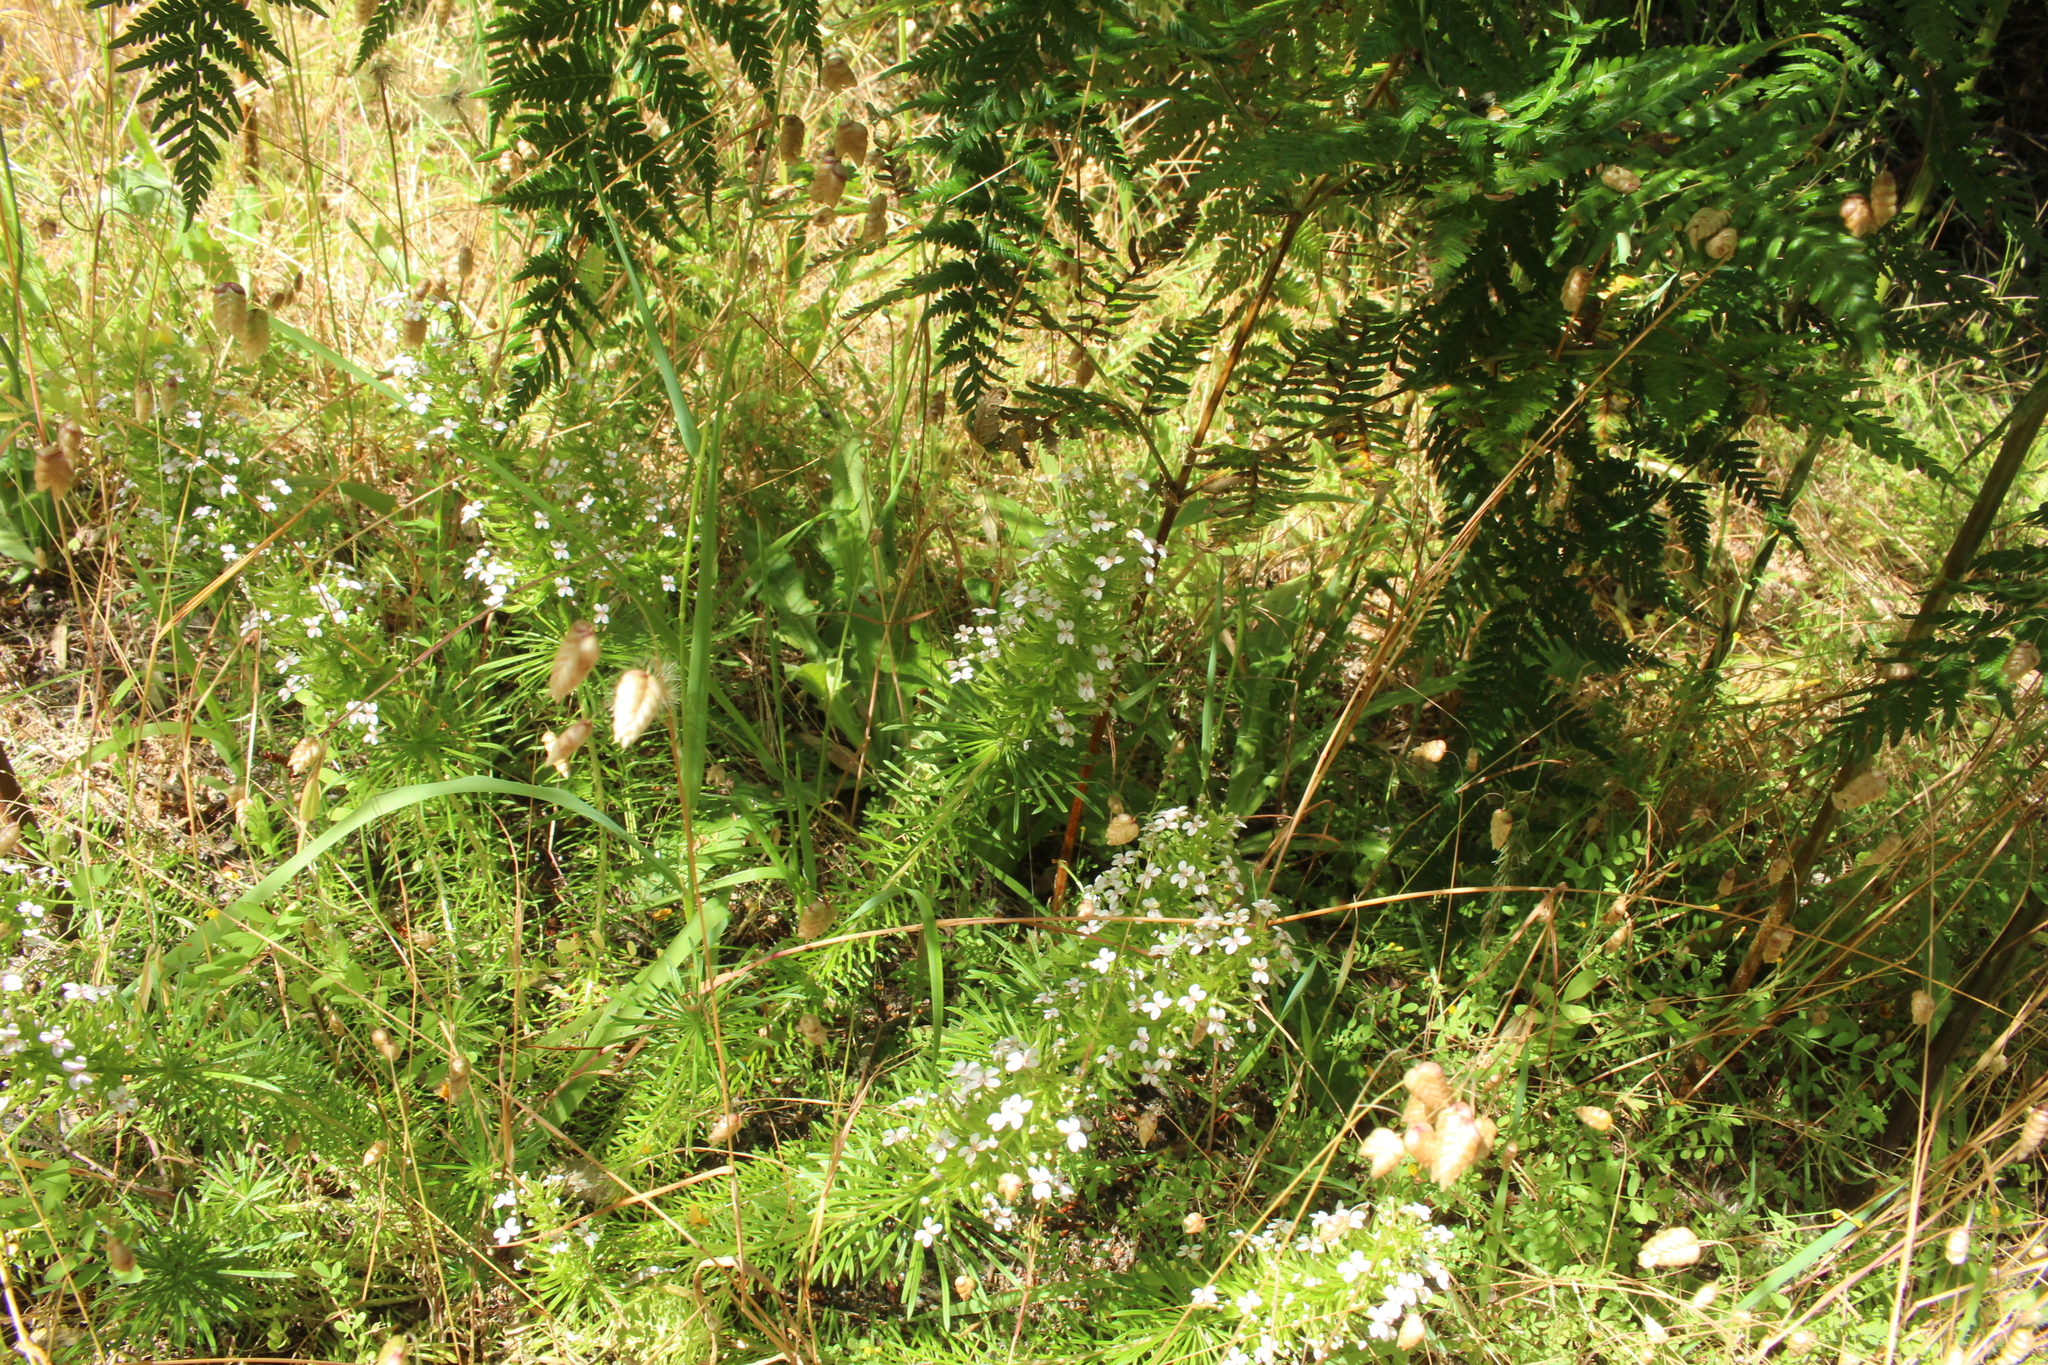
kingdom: Plantae
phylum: Tracheophyta
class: Magnoliopsida
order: Asterales
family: Stylidiaceae
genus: Stylidium
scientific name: Stylidium adnatum
